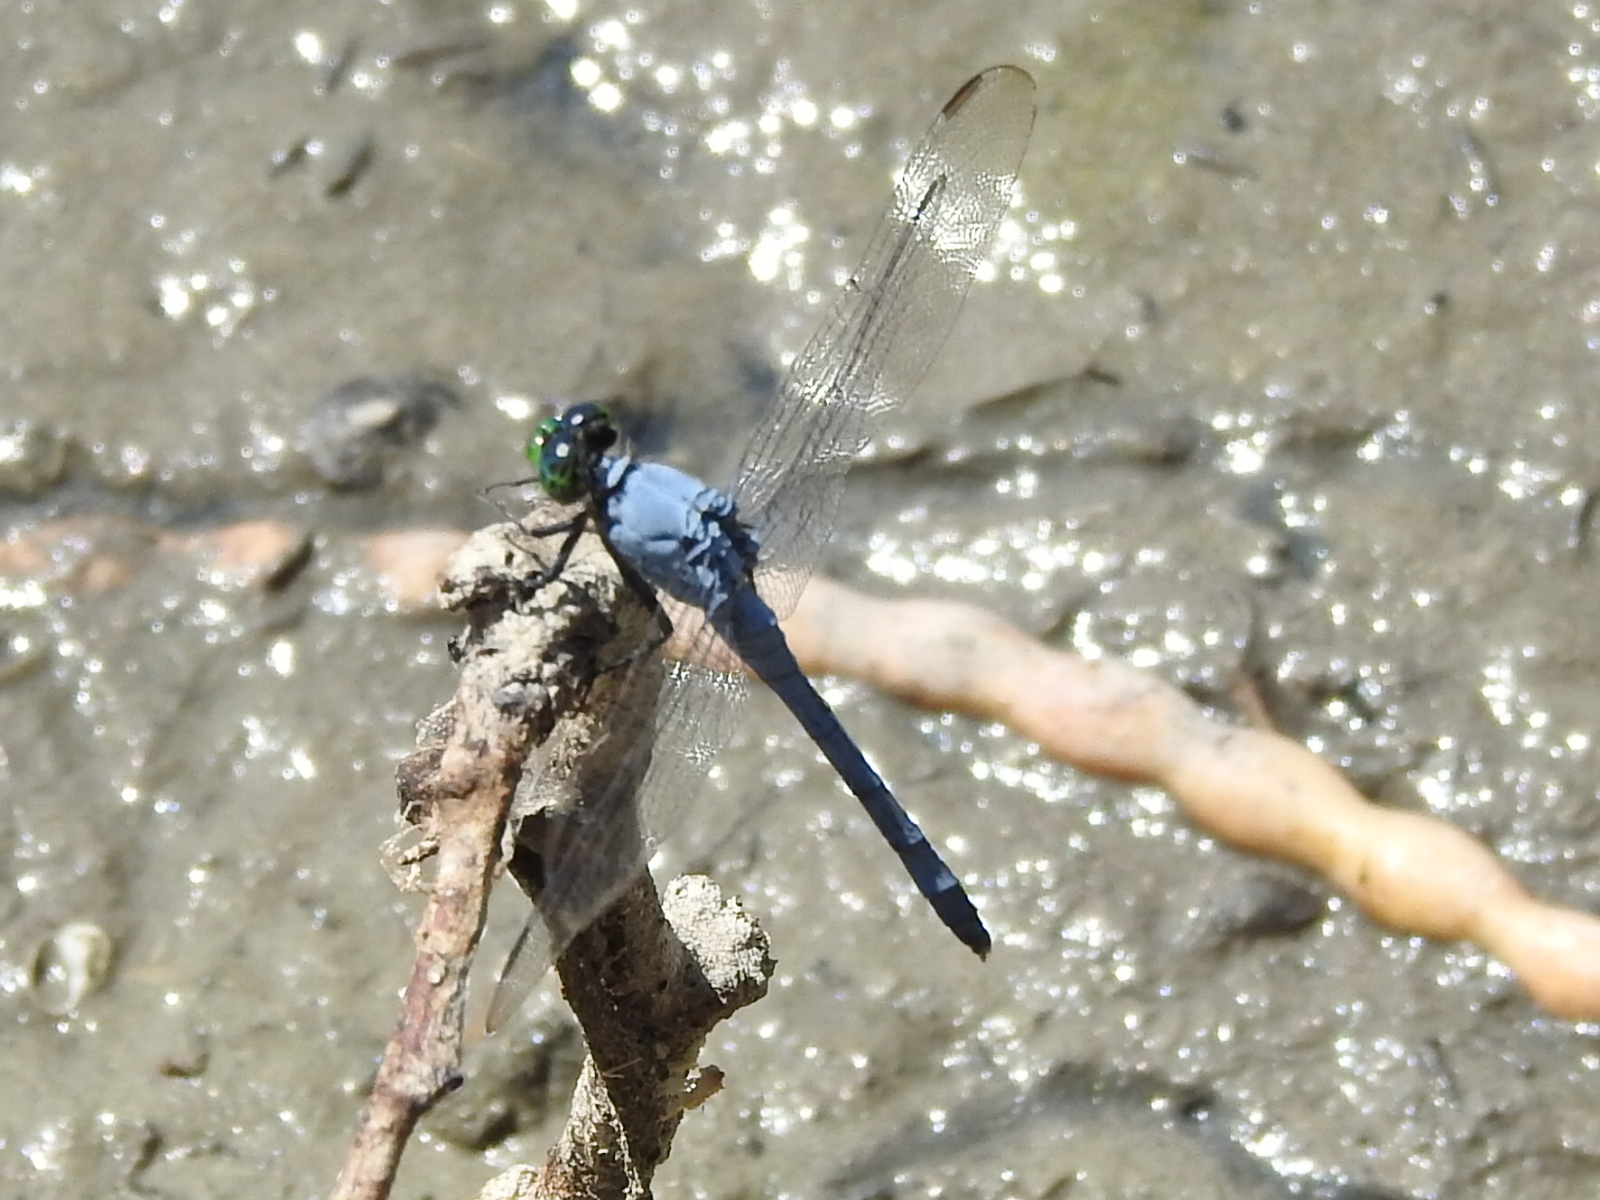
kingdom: Animalia
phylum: Arthropoda
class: Insecta
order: Odonata
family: Libellulidae
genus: Erythemis
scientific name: Erythemis simplicicollis
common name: Eastern pondhawk
